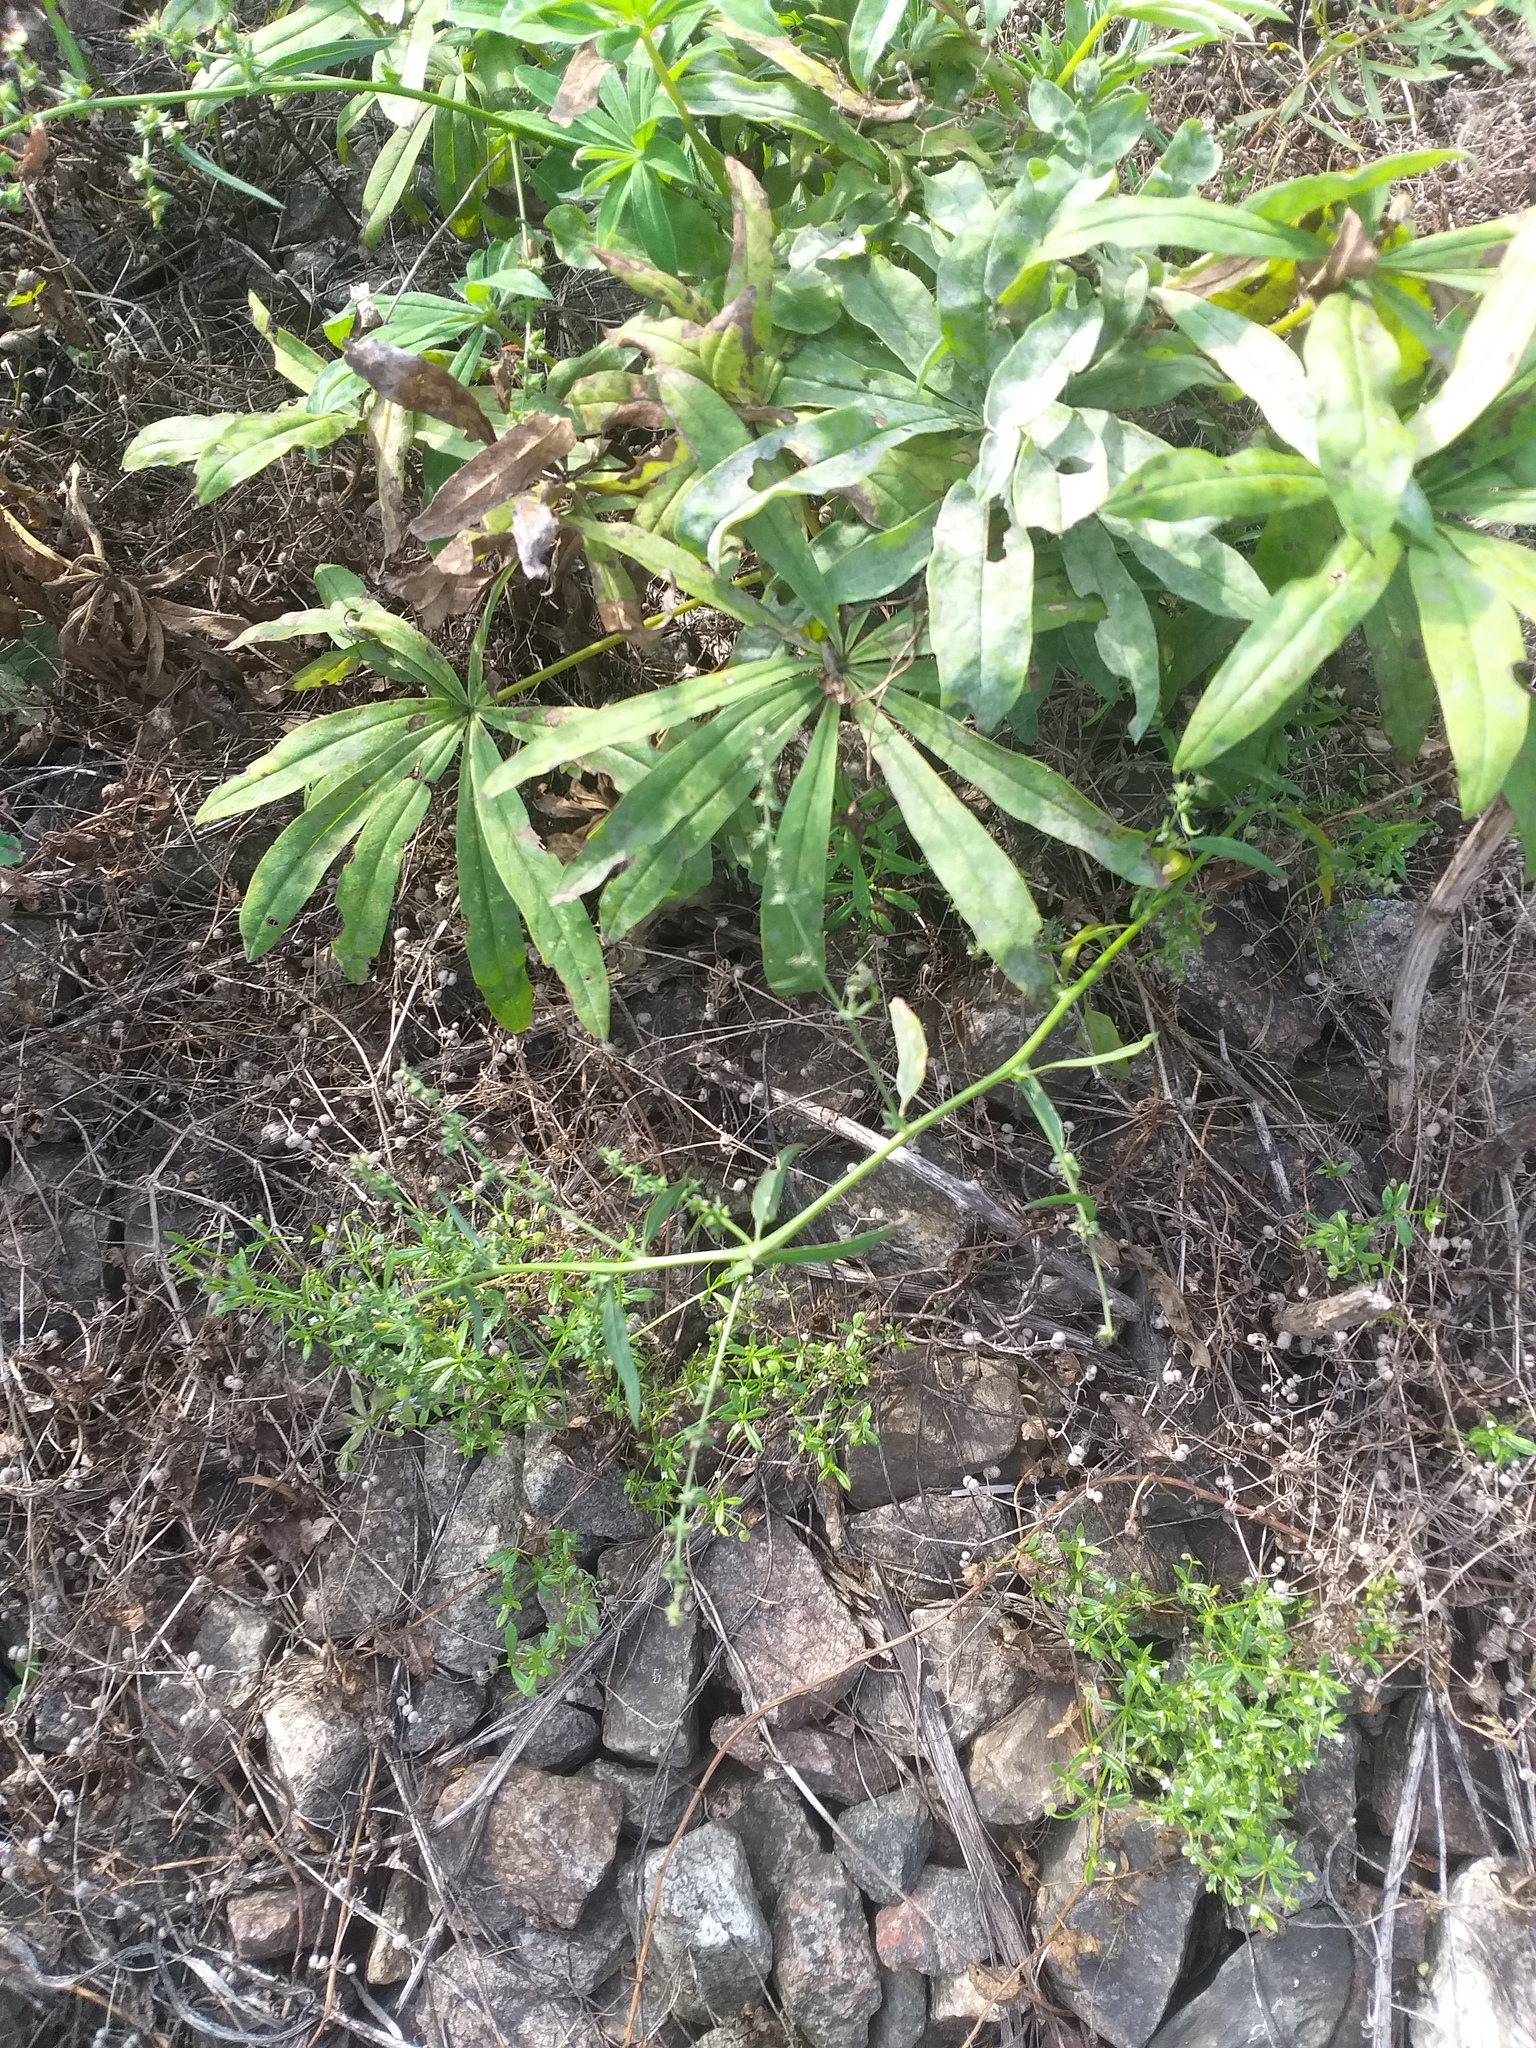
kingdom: Plantae
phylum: Tracheophyta
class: Magnoliopsida
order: Caryophyllales
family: Amaranthaceae
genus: Atriplex
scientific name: Atriplex patula
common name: Common orache
